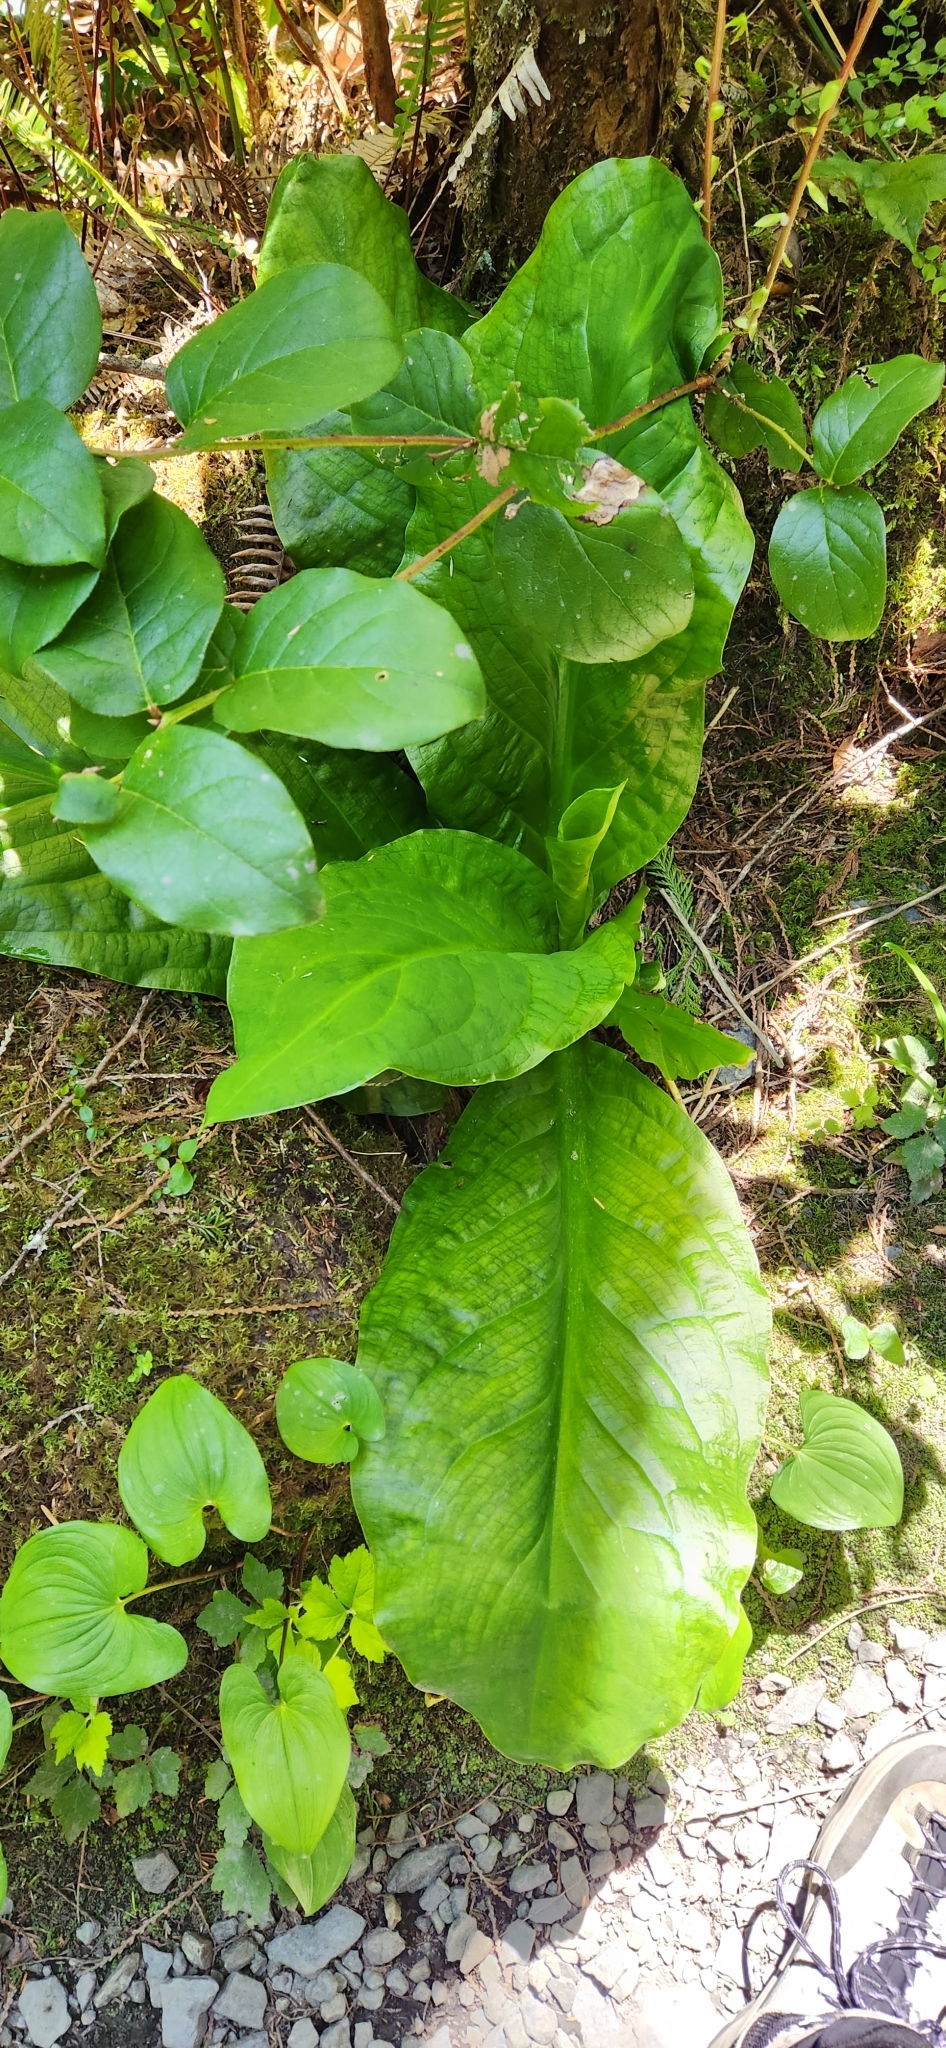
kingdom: Plantae
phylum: Tracheophyta
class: Liliopsida
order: Alismatales
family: Araceae
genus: Lysichiton
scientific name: Lysichiton americanus
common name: American skunk cabbage
